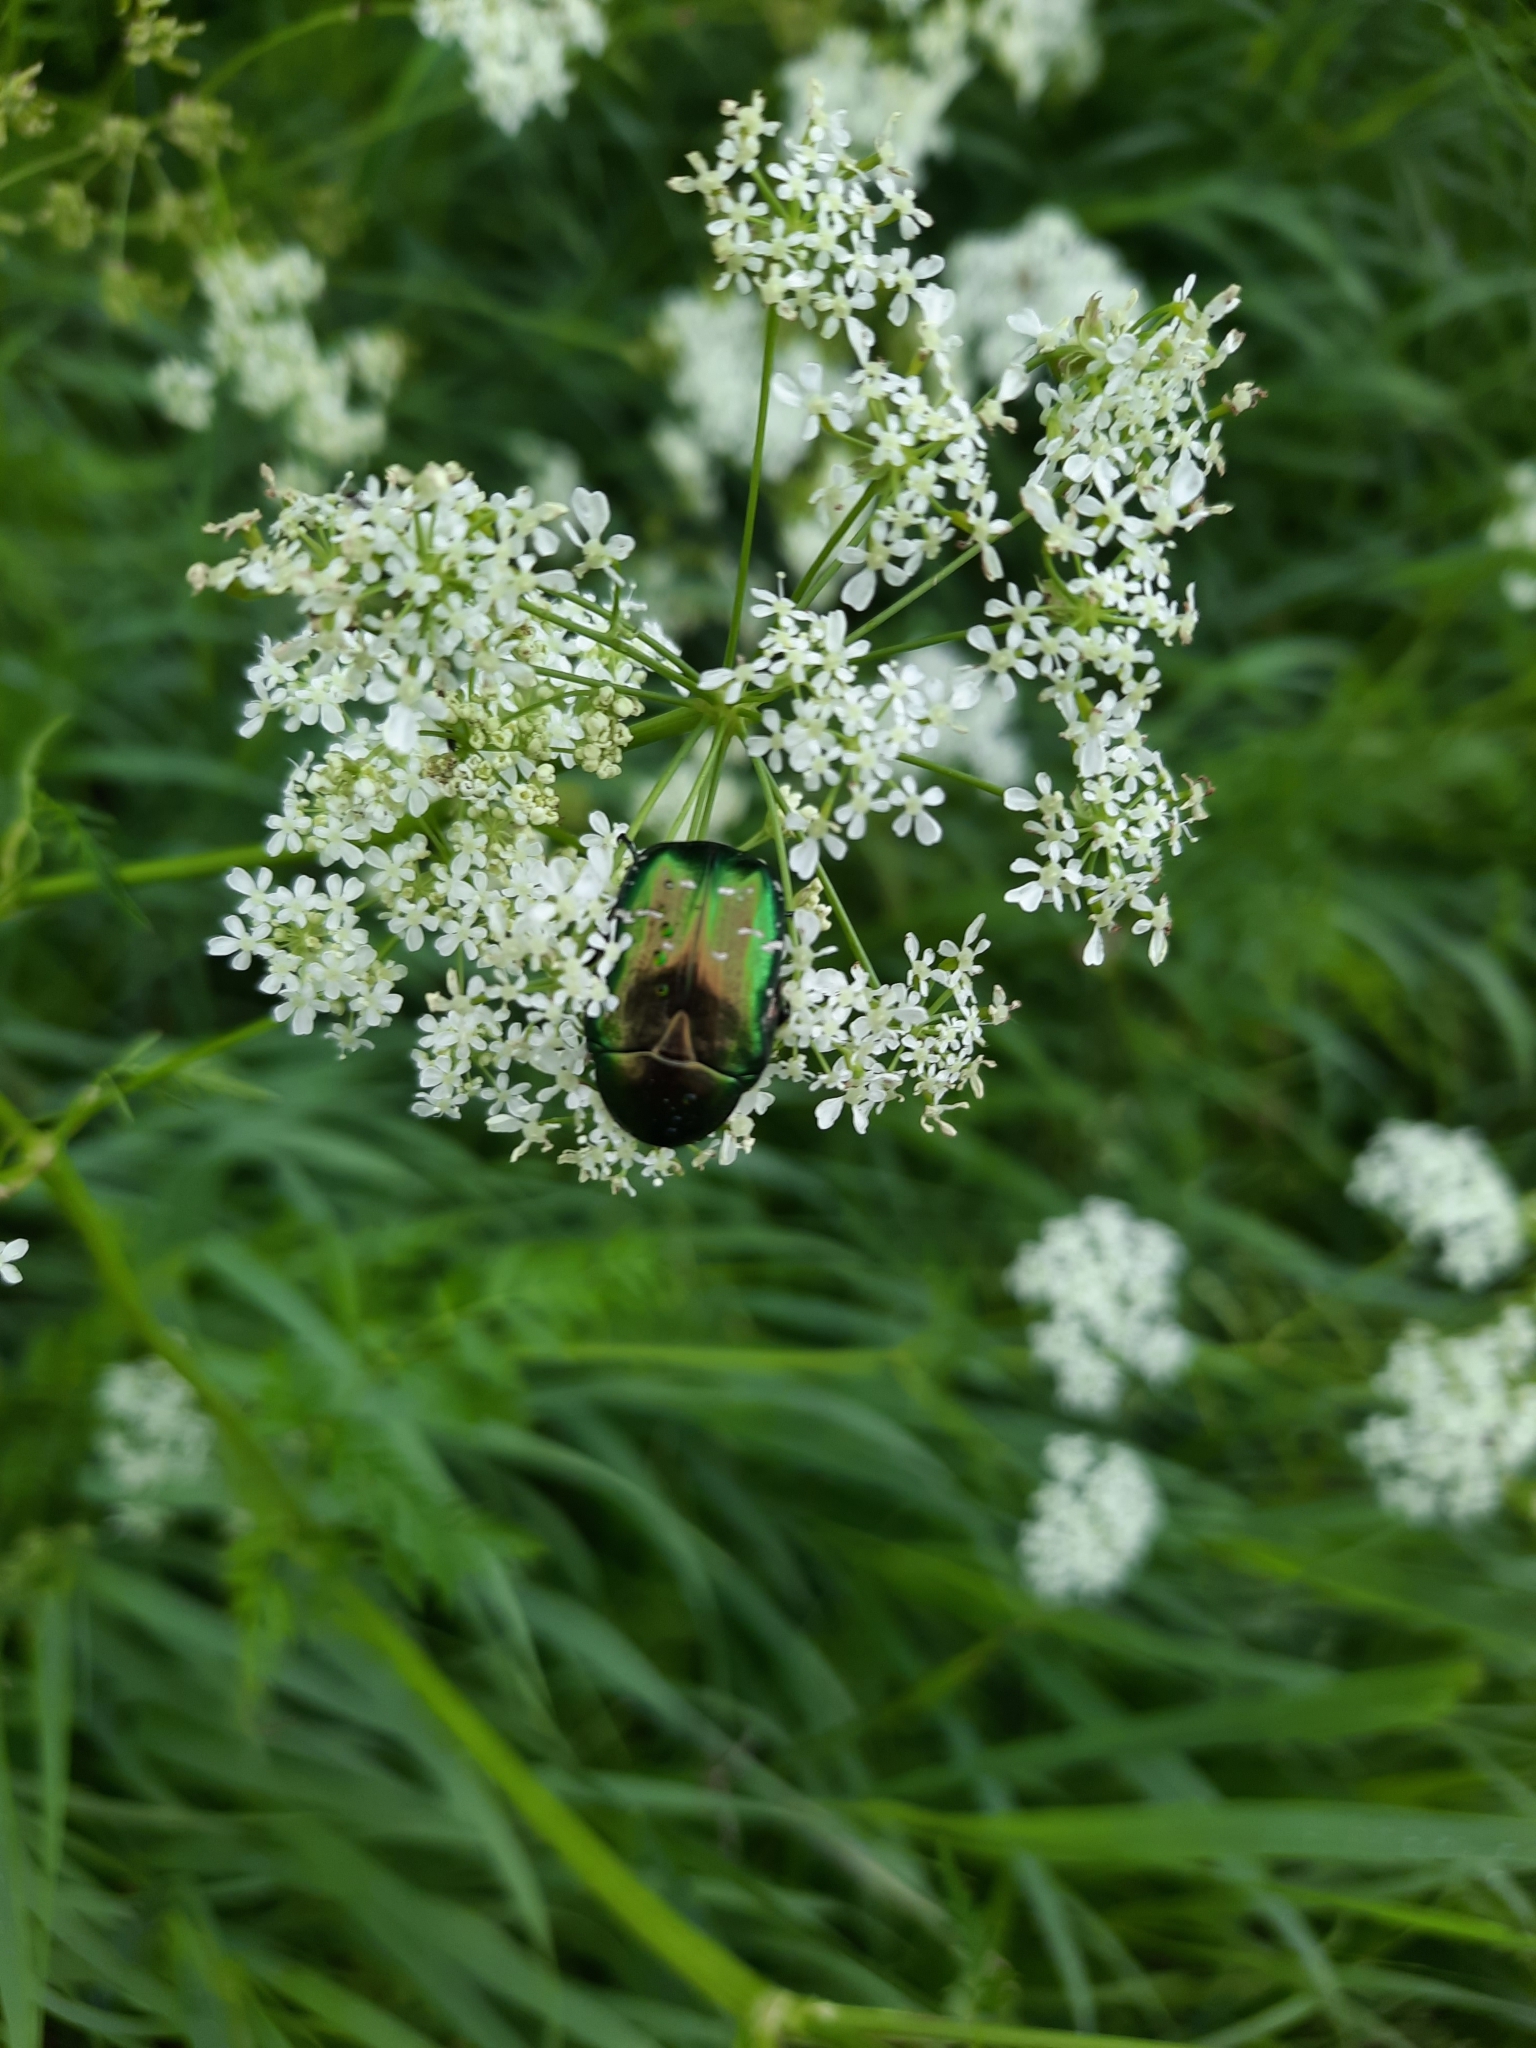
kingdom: Animalia
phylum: Arthropoda
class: Insecta
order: Coleoptera
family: Scarabaeidae
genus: Cetonia
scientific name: Cetonia aurata
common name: Rose chafer
